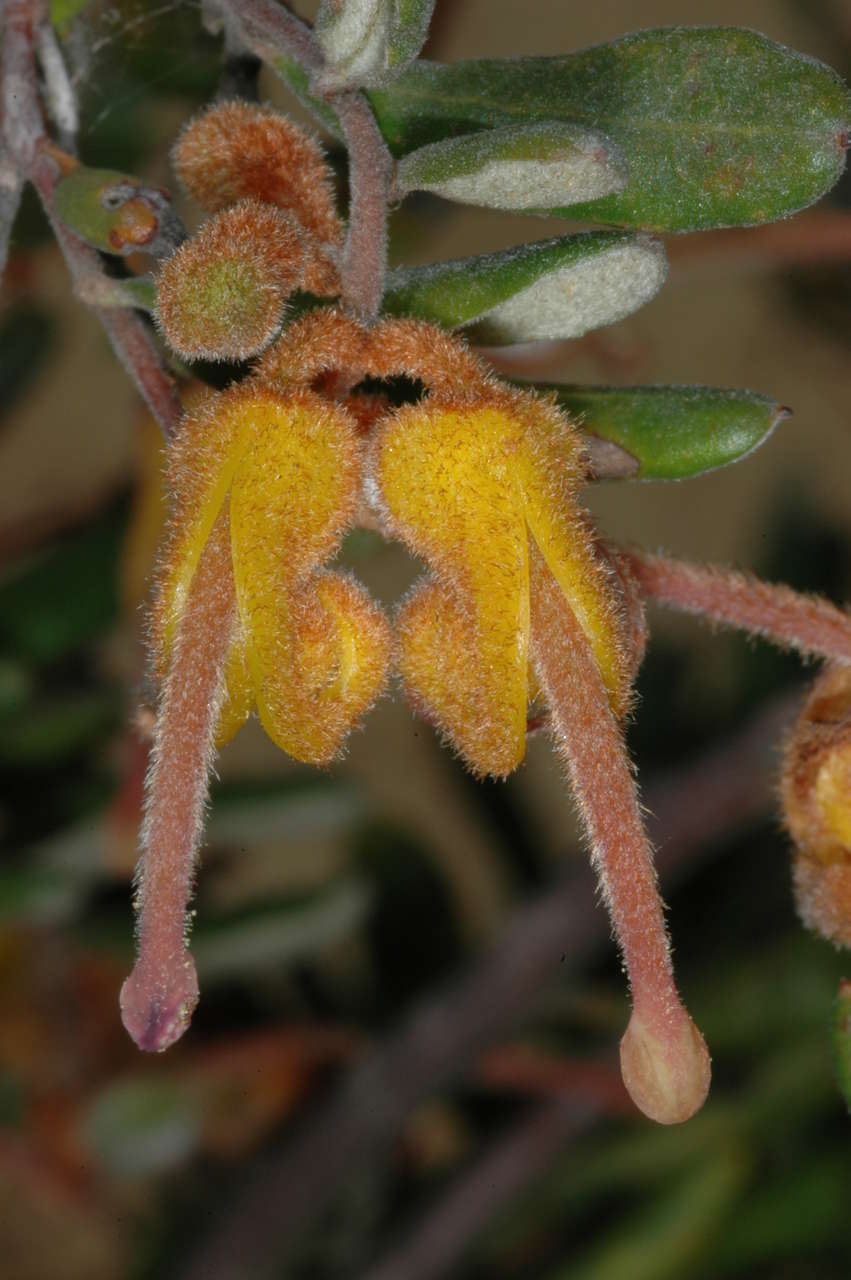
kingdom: Plantae
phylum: Tracheophyta
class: Magnoliopsida
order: Proteales
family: Proteaceae
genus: Grevillea
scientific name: Grevillea chrysophaea
